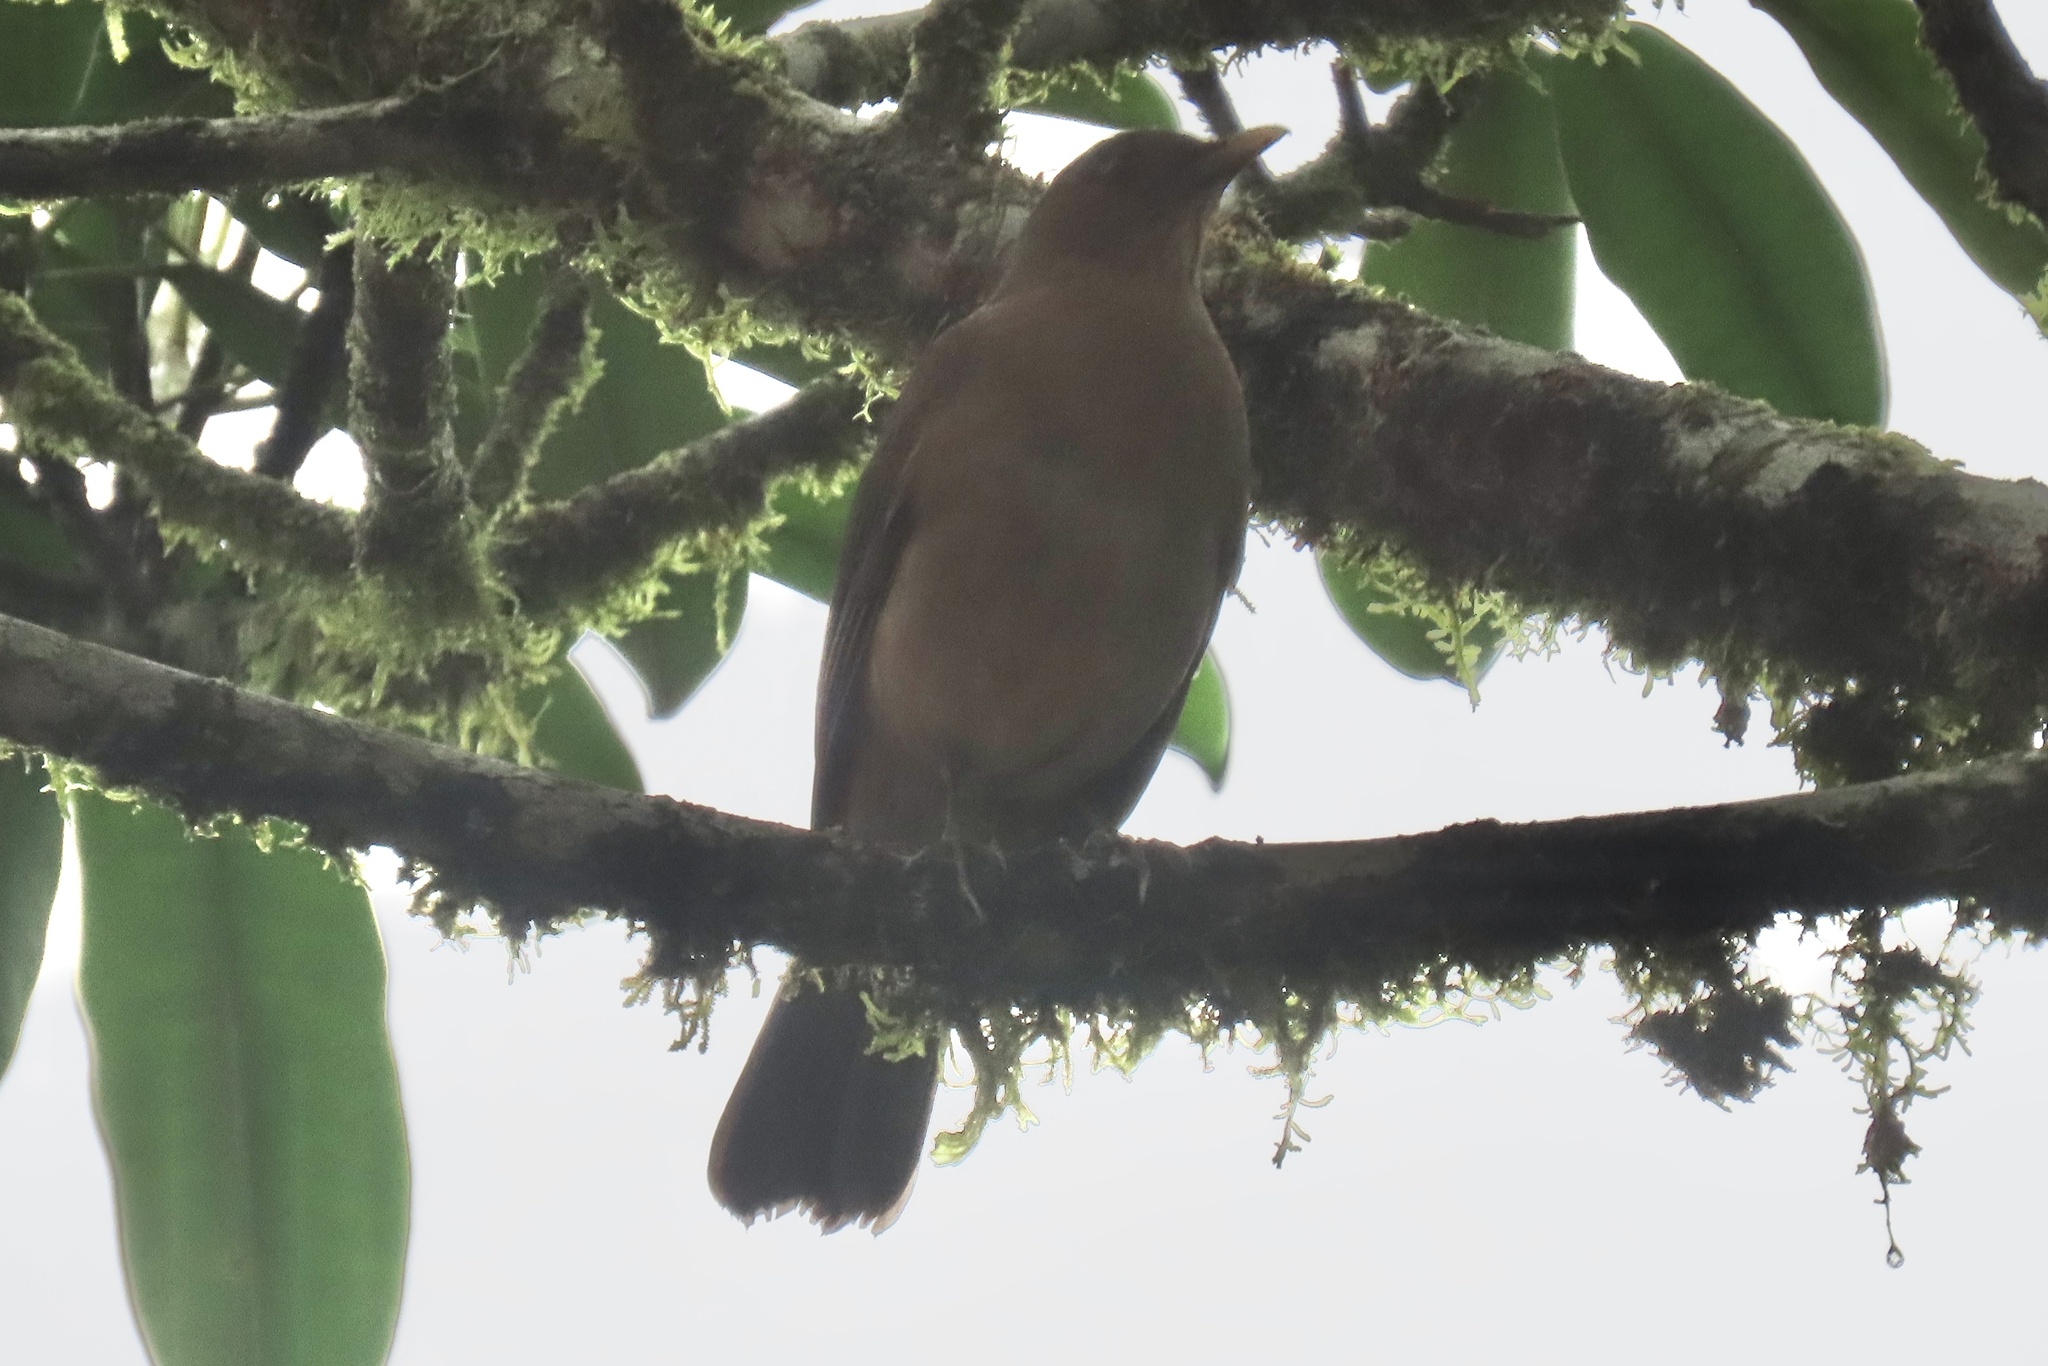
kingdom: Animalia
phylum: Chordata
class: Aves
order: Passeriformes
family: Turdidae
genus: Turdus
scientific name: Turdus grayi
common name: Clay-colored thrush
